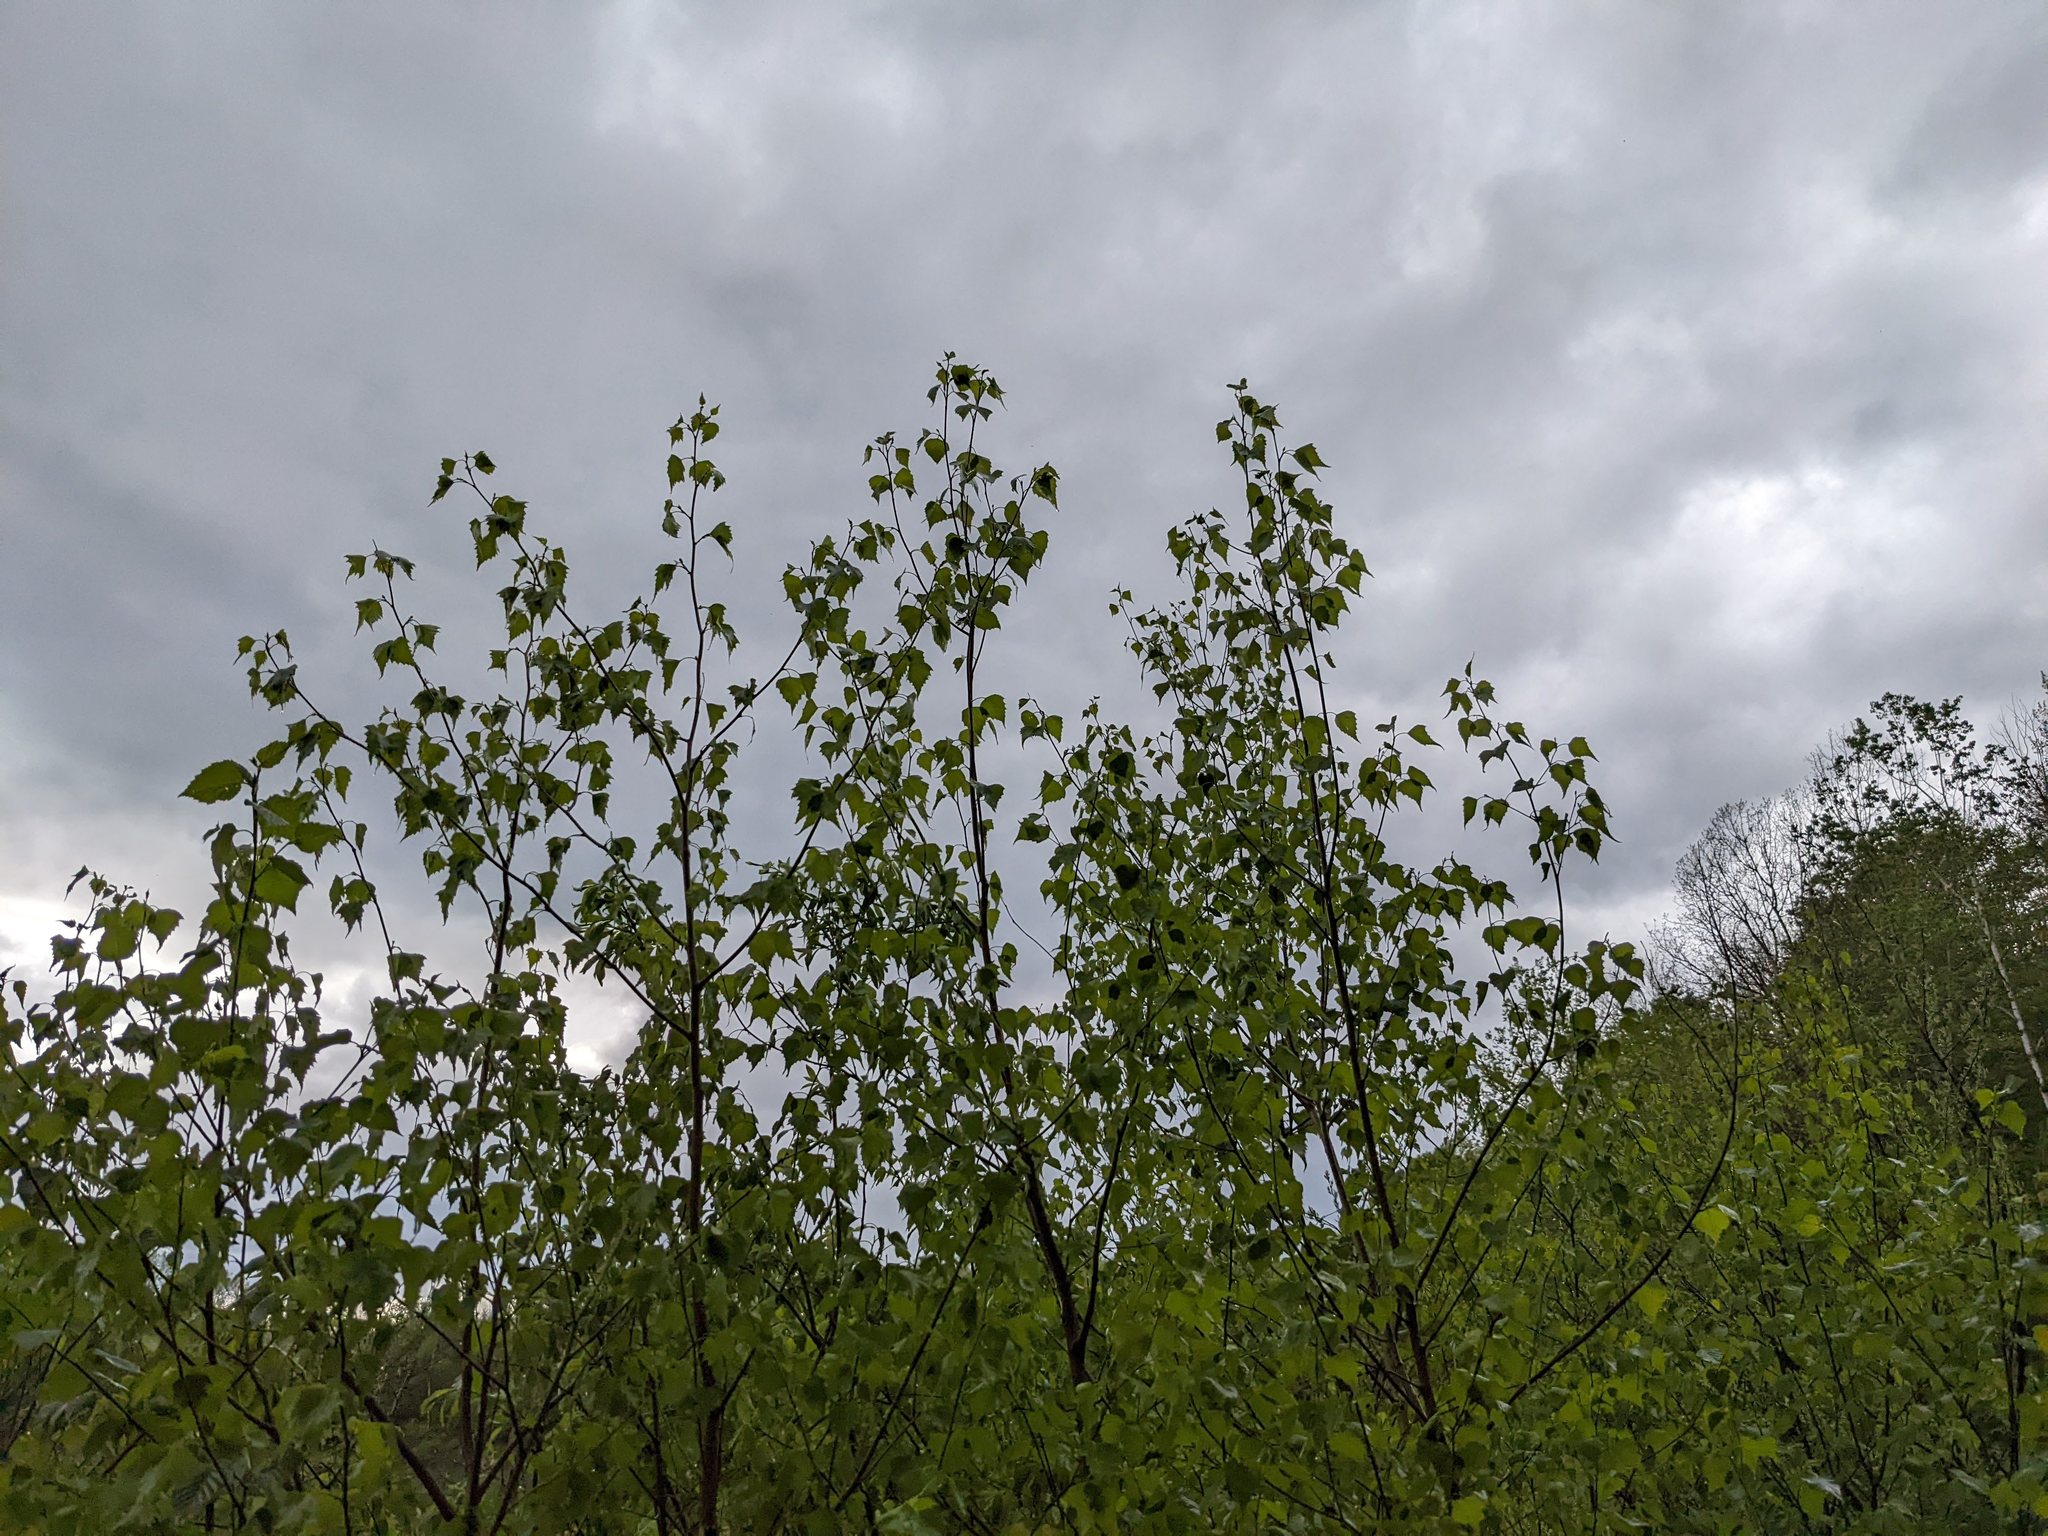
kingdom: Plantae
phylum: Tracheophyta
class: Magnoliopsida
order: Fagales
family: Betulaceae
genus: Betula
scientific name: Betula populifolia
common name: Fire birch
